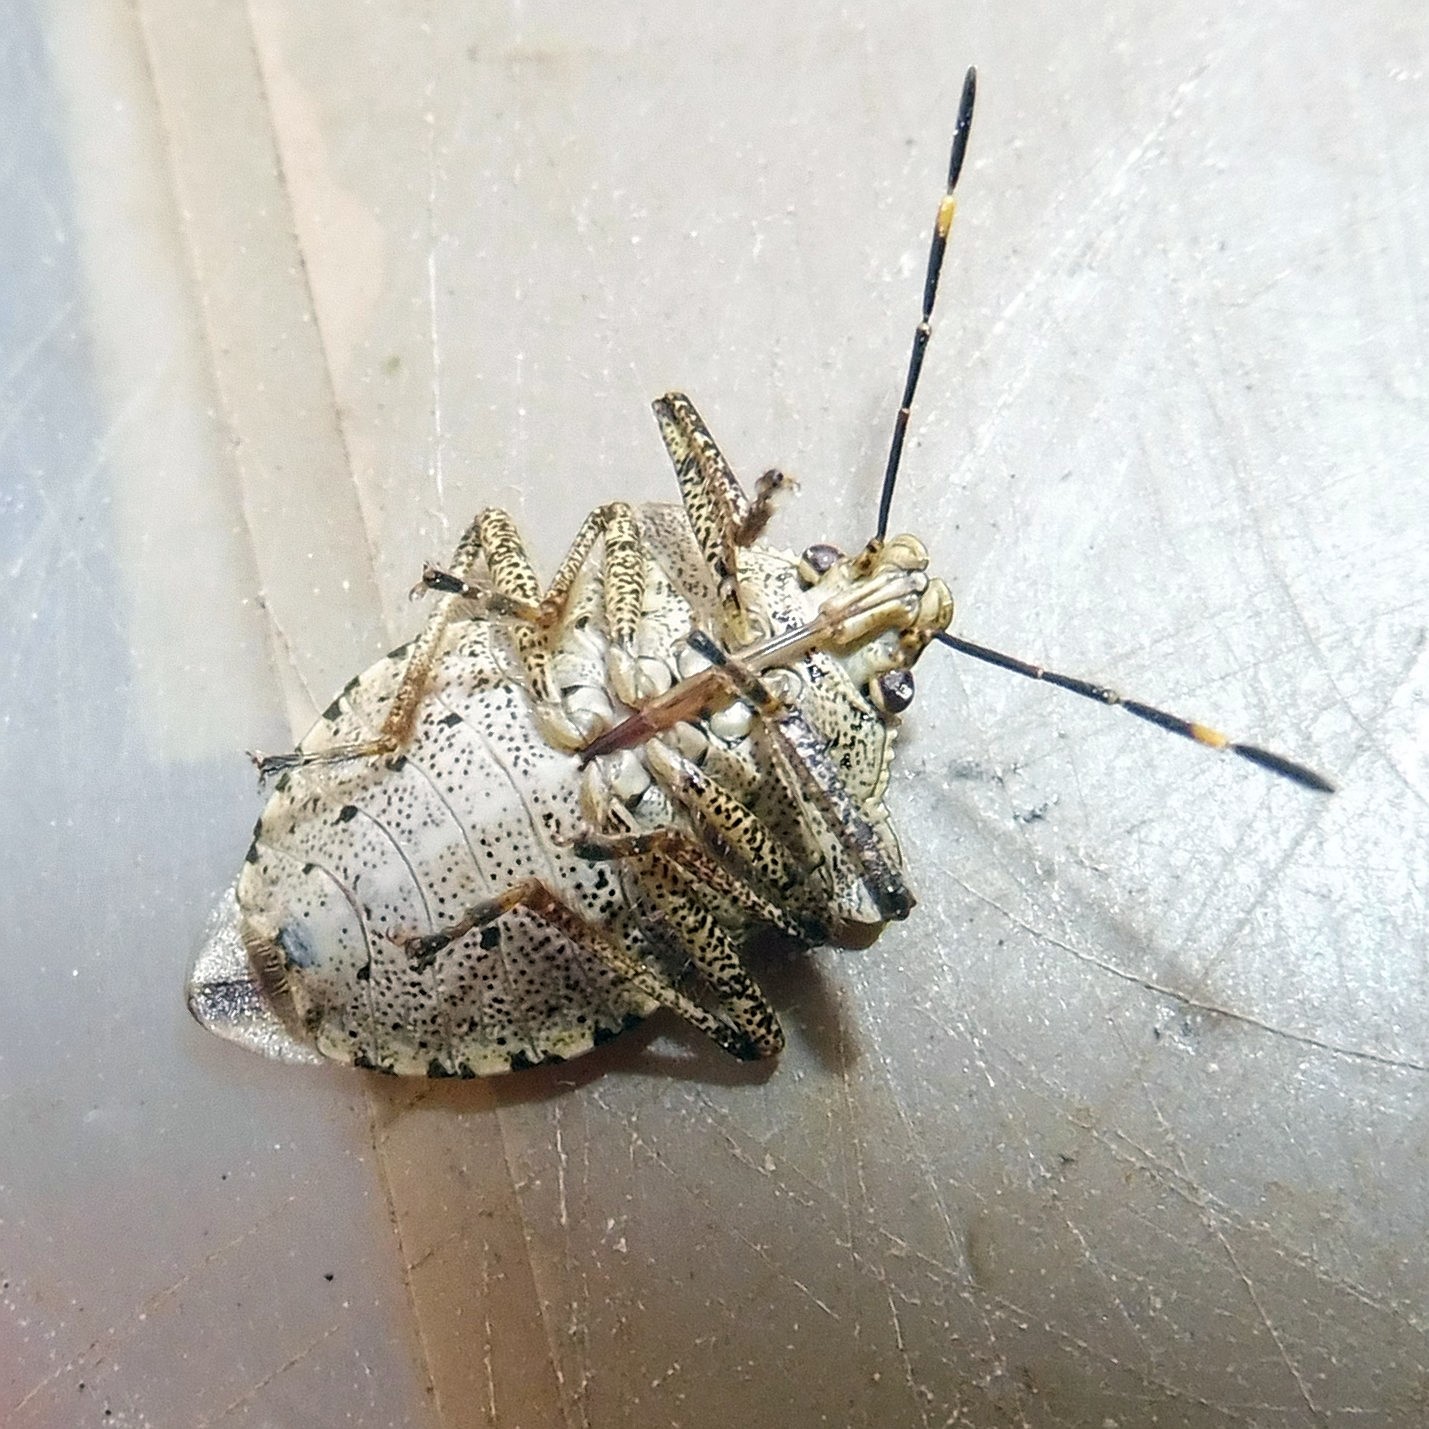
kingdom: Animalia
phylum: Arthropoda
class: Insecta
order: Hemiptera
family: Pentatomidae
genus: Troilus
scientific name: Troilus luridus
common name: Bronze shieldbug
